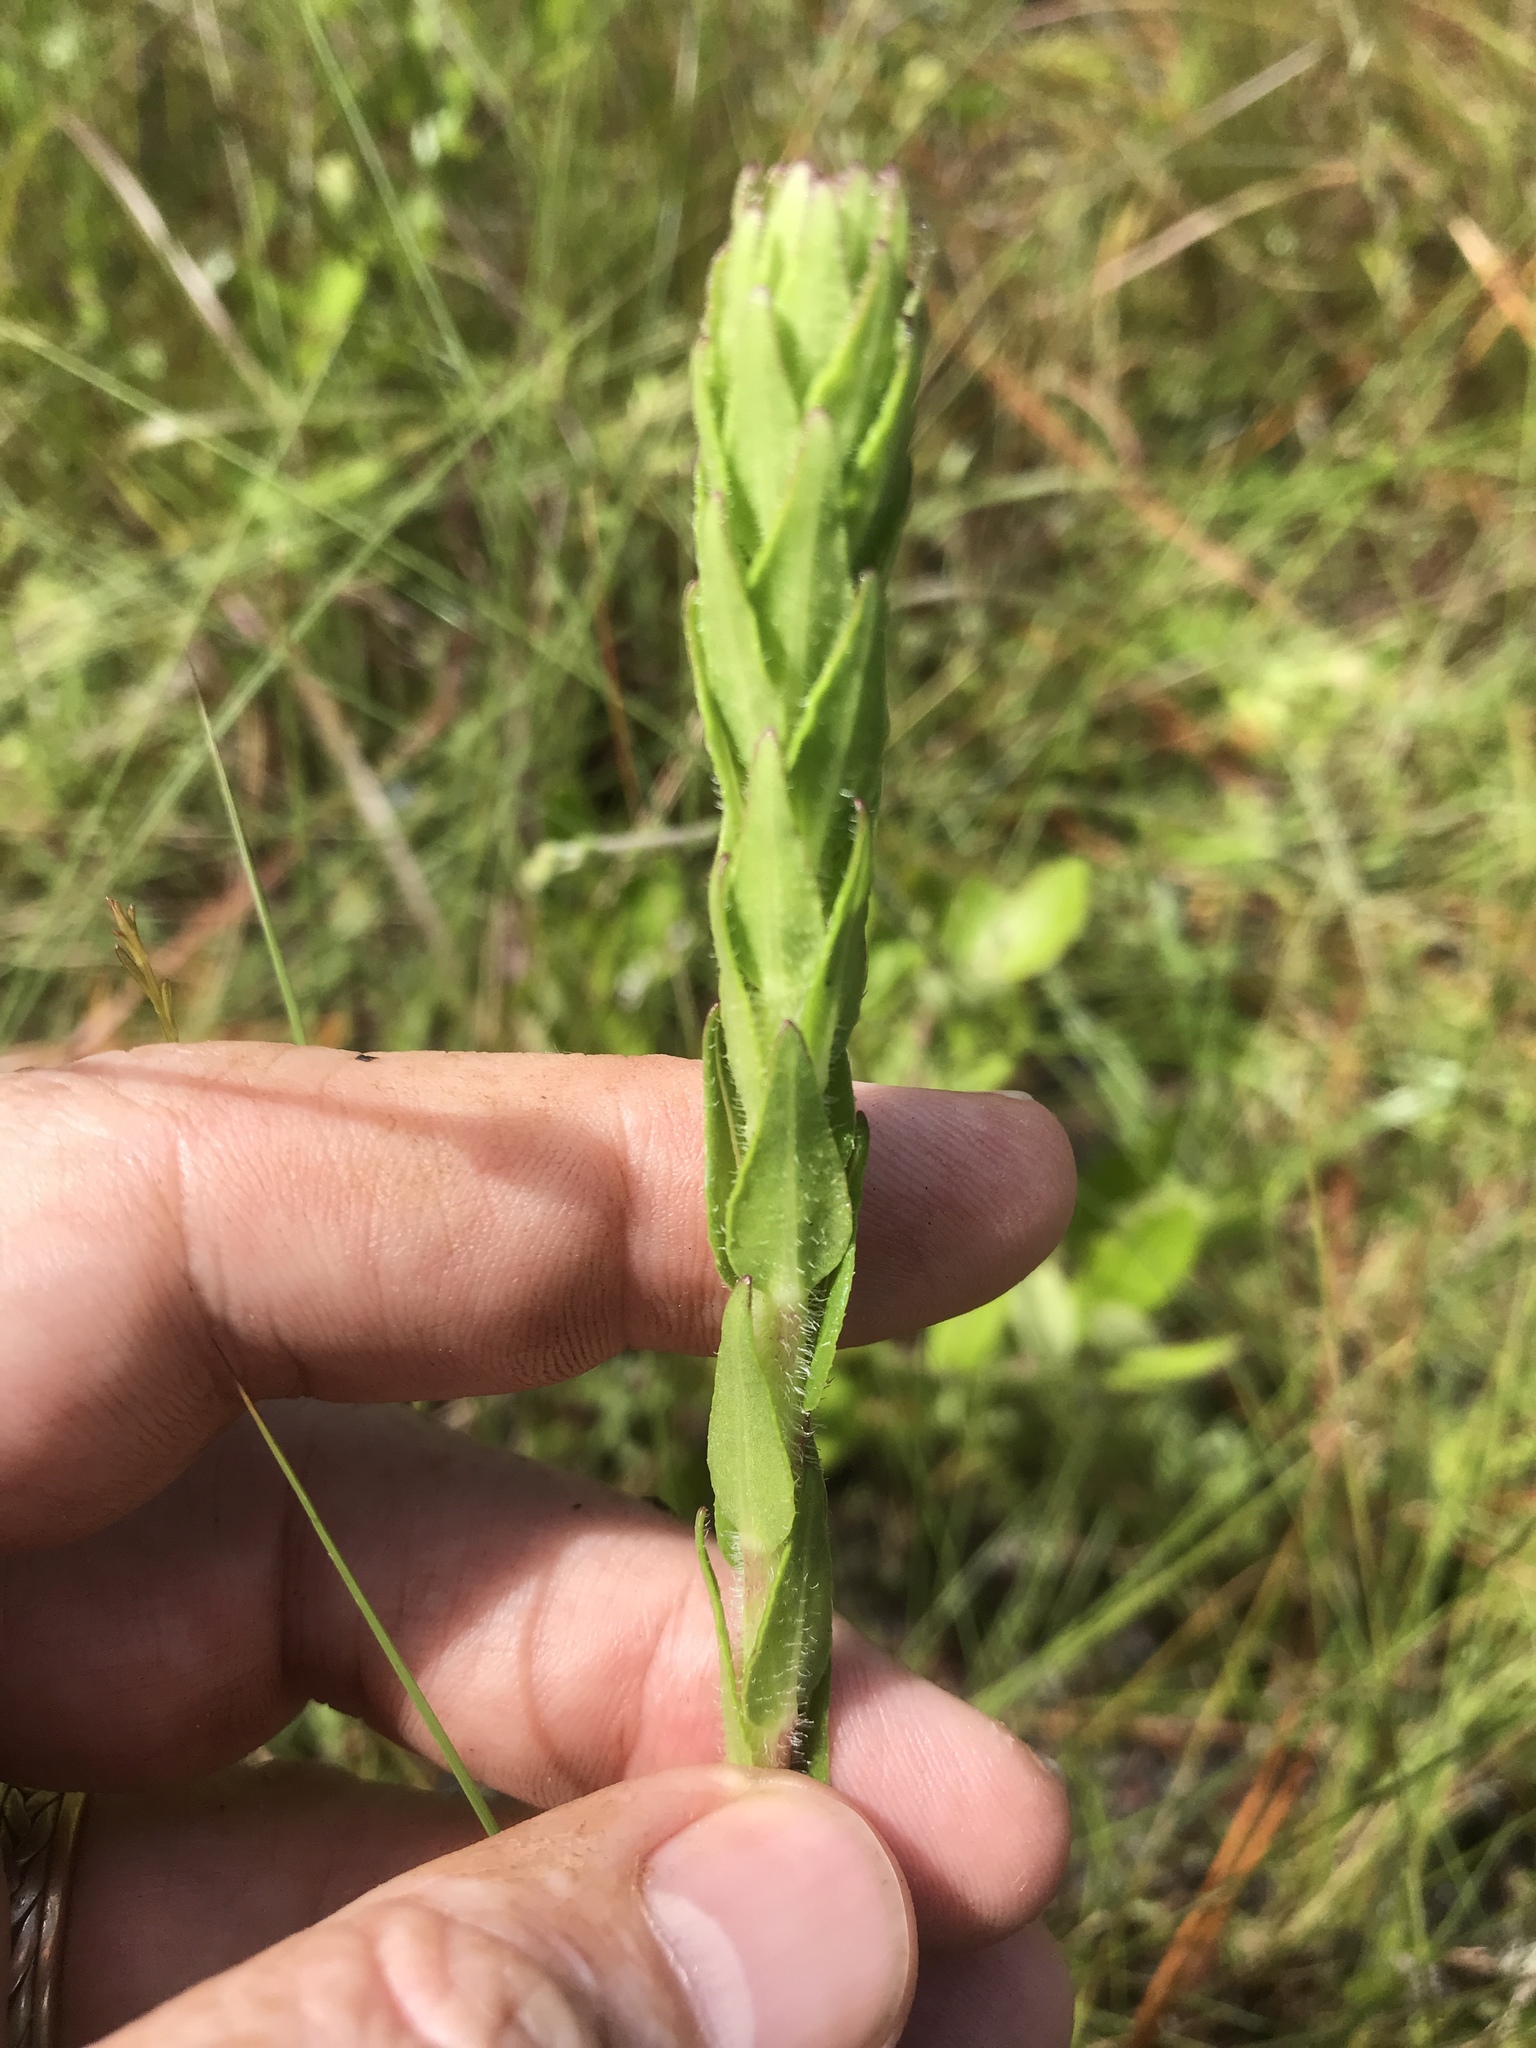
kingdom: Plantae
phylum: Tracheophyta
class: Magnoliopsida
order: Asterales
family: Asteraceae
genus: Carphephorus
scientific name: Carphephorus paniculatus
